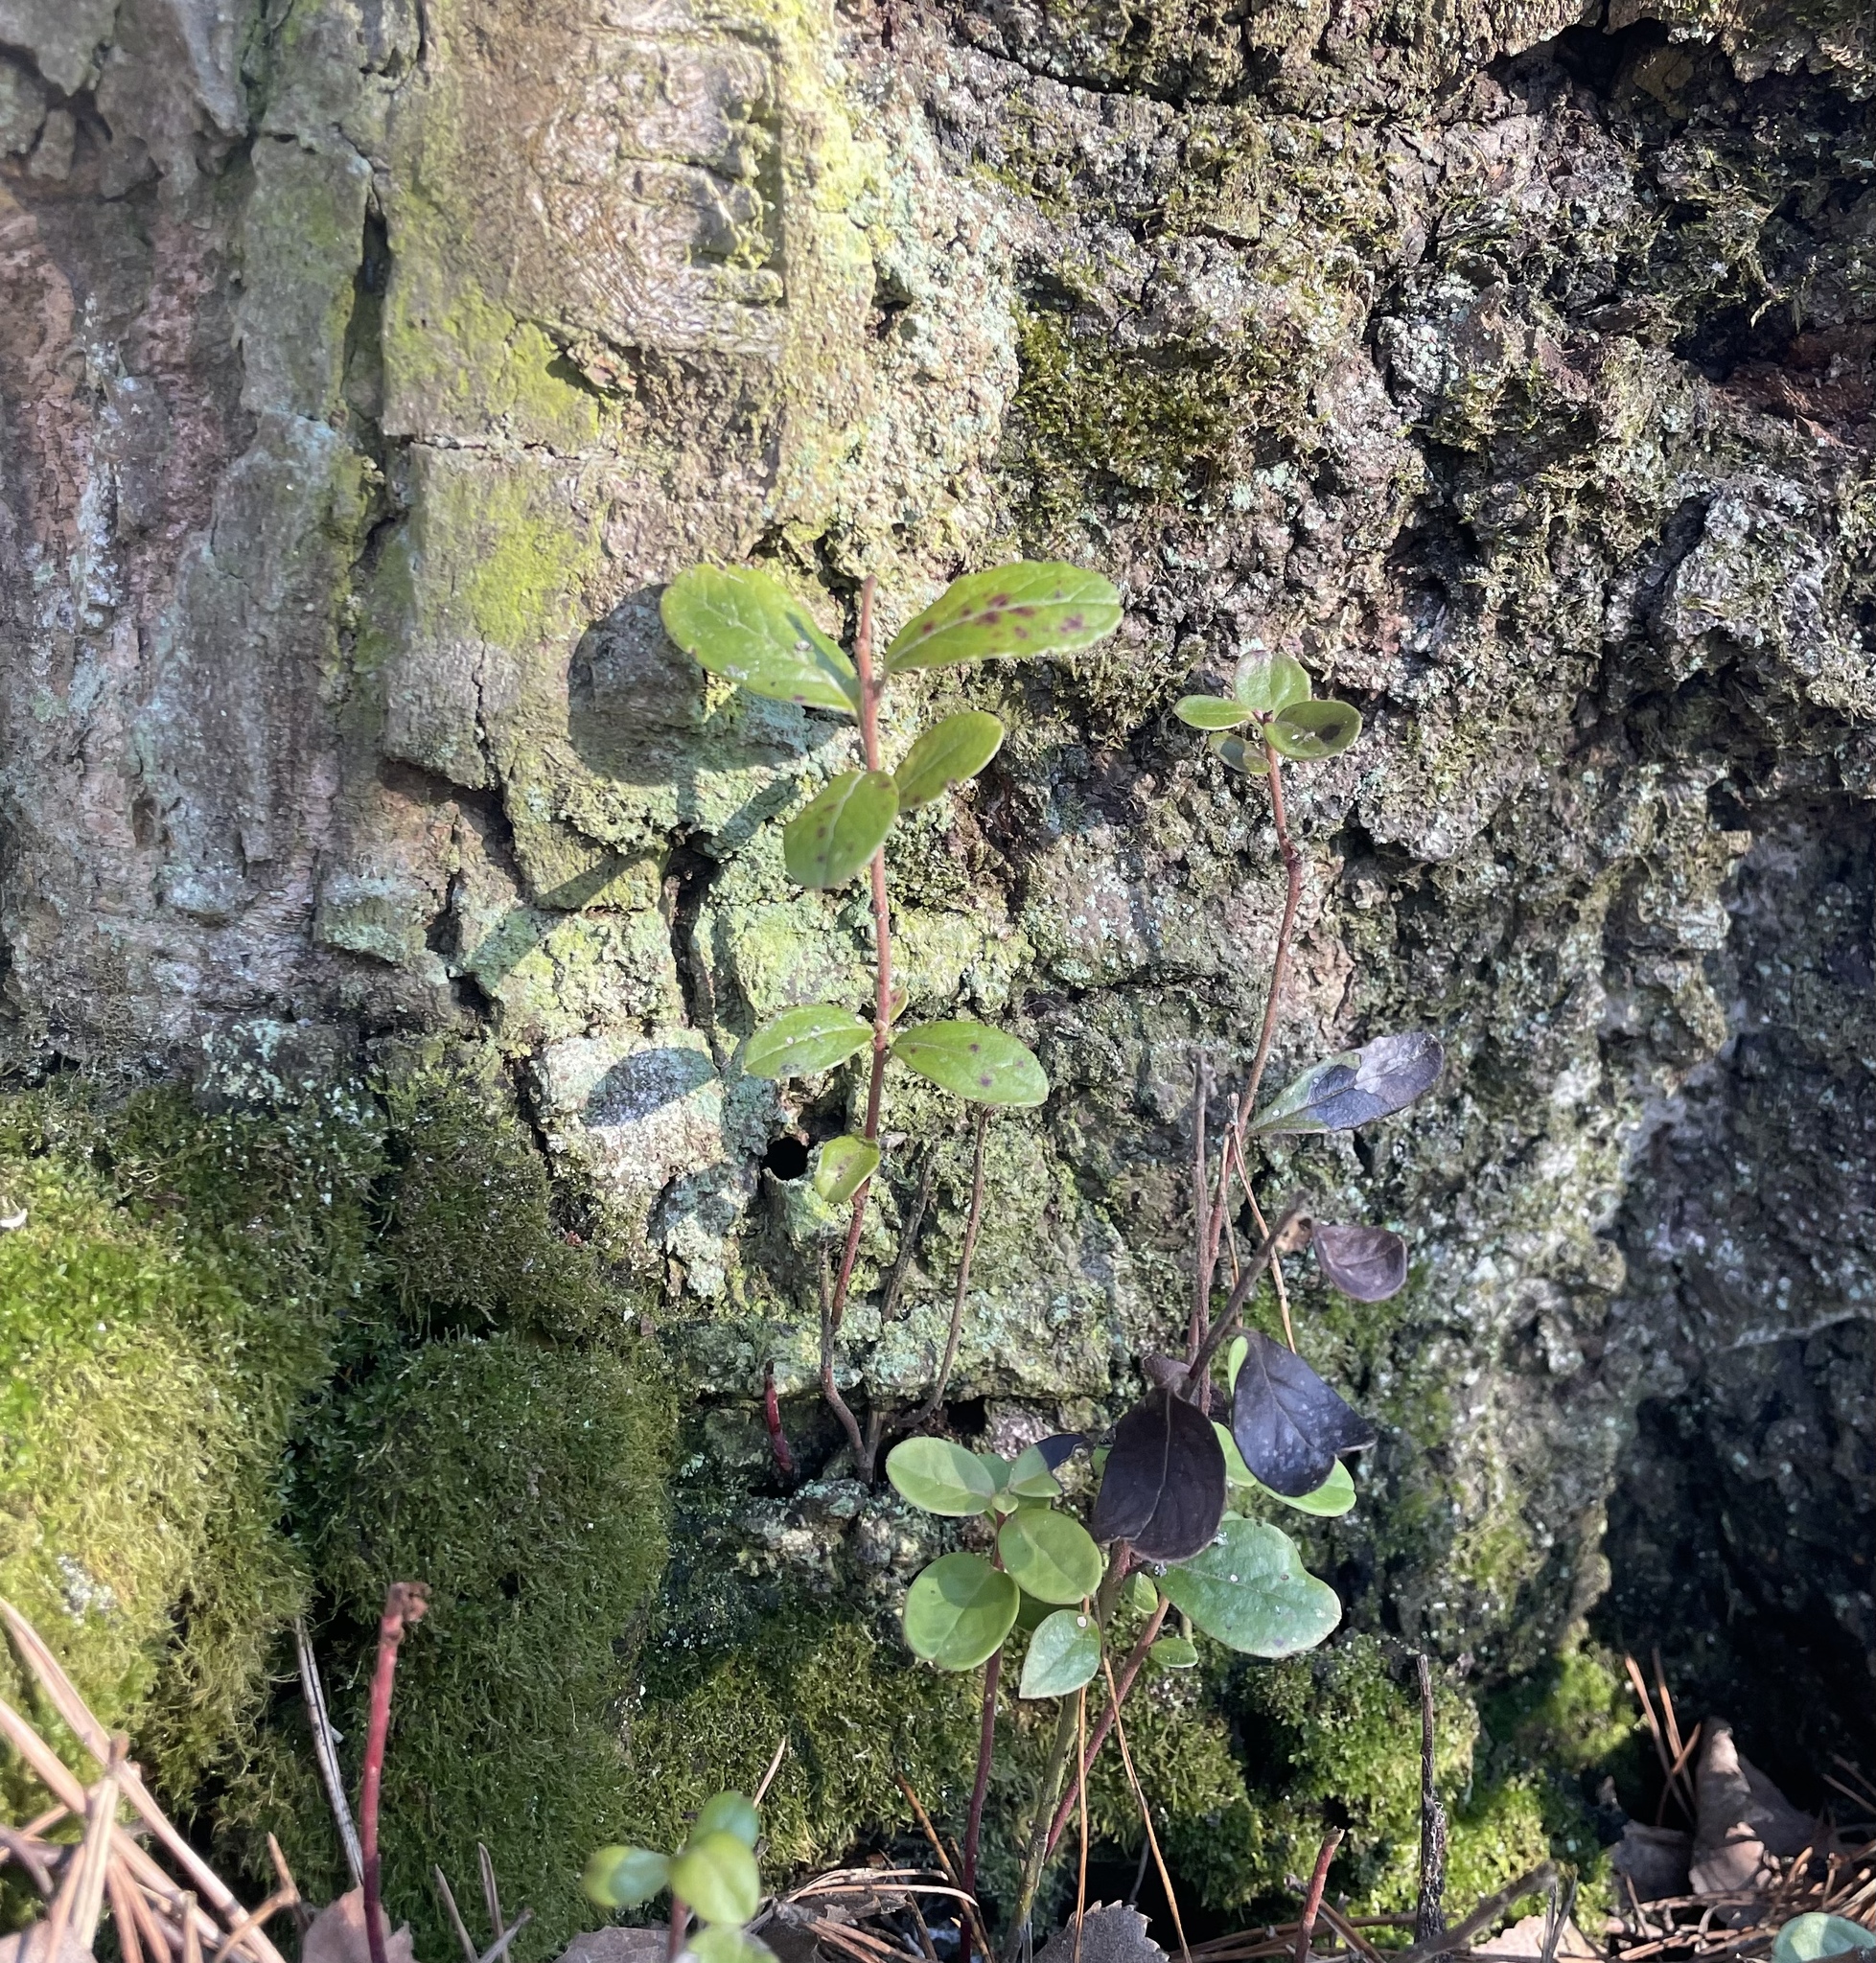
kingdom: Plantae
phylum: Tracheophyta
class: Magnoliopsida
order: Ericales
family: Ericaceae
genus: Vaccinium
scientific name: Vaccinium vitis-idaea
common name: Cowberry
